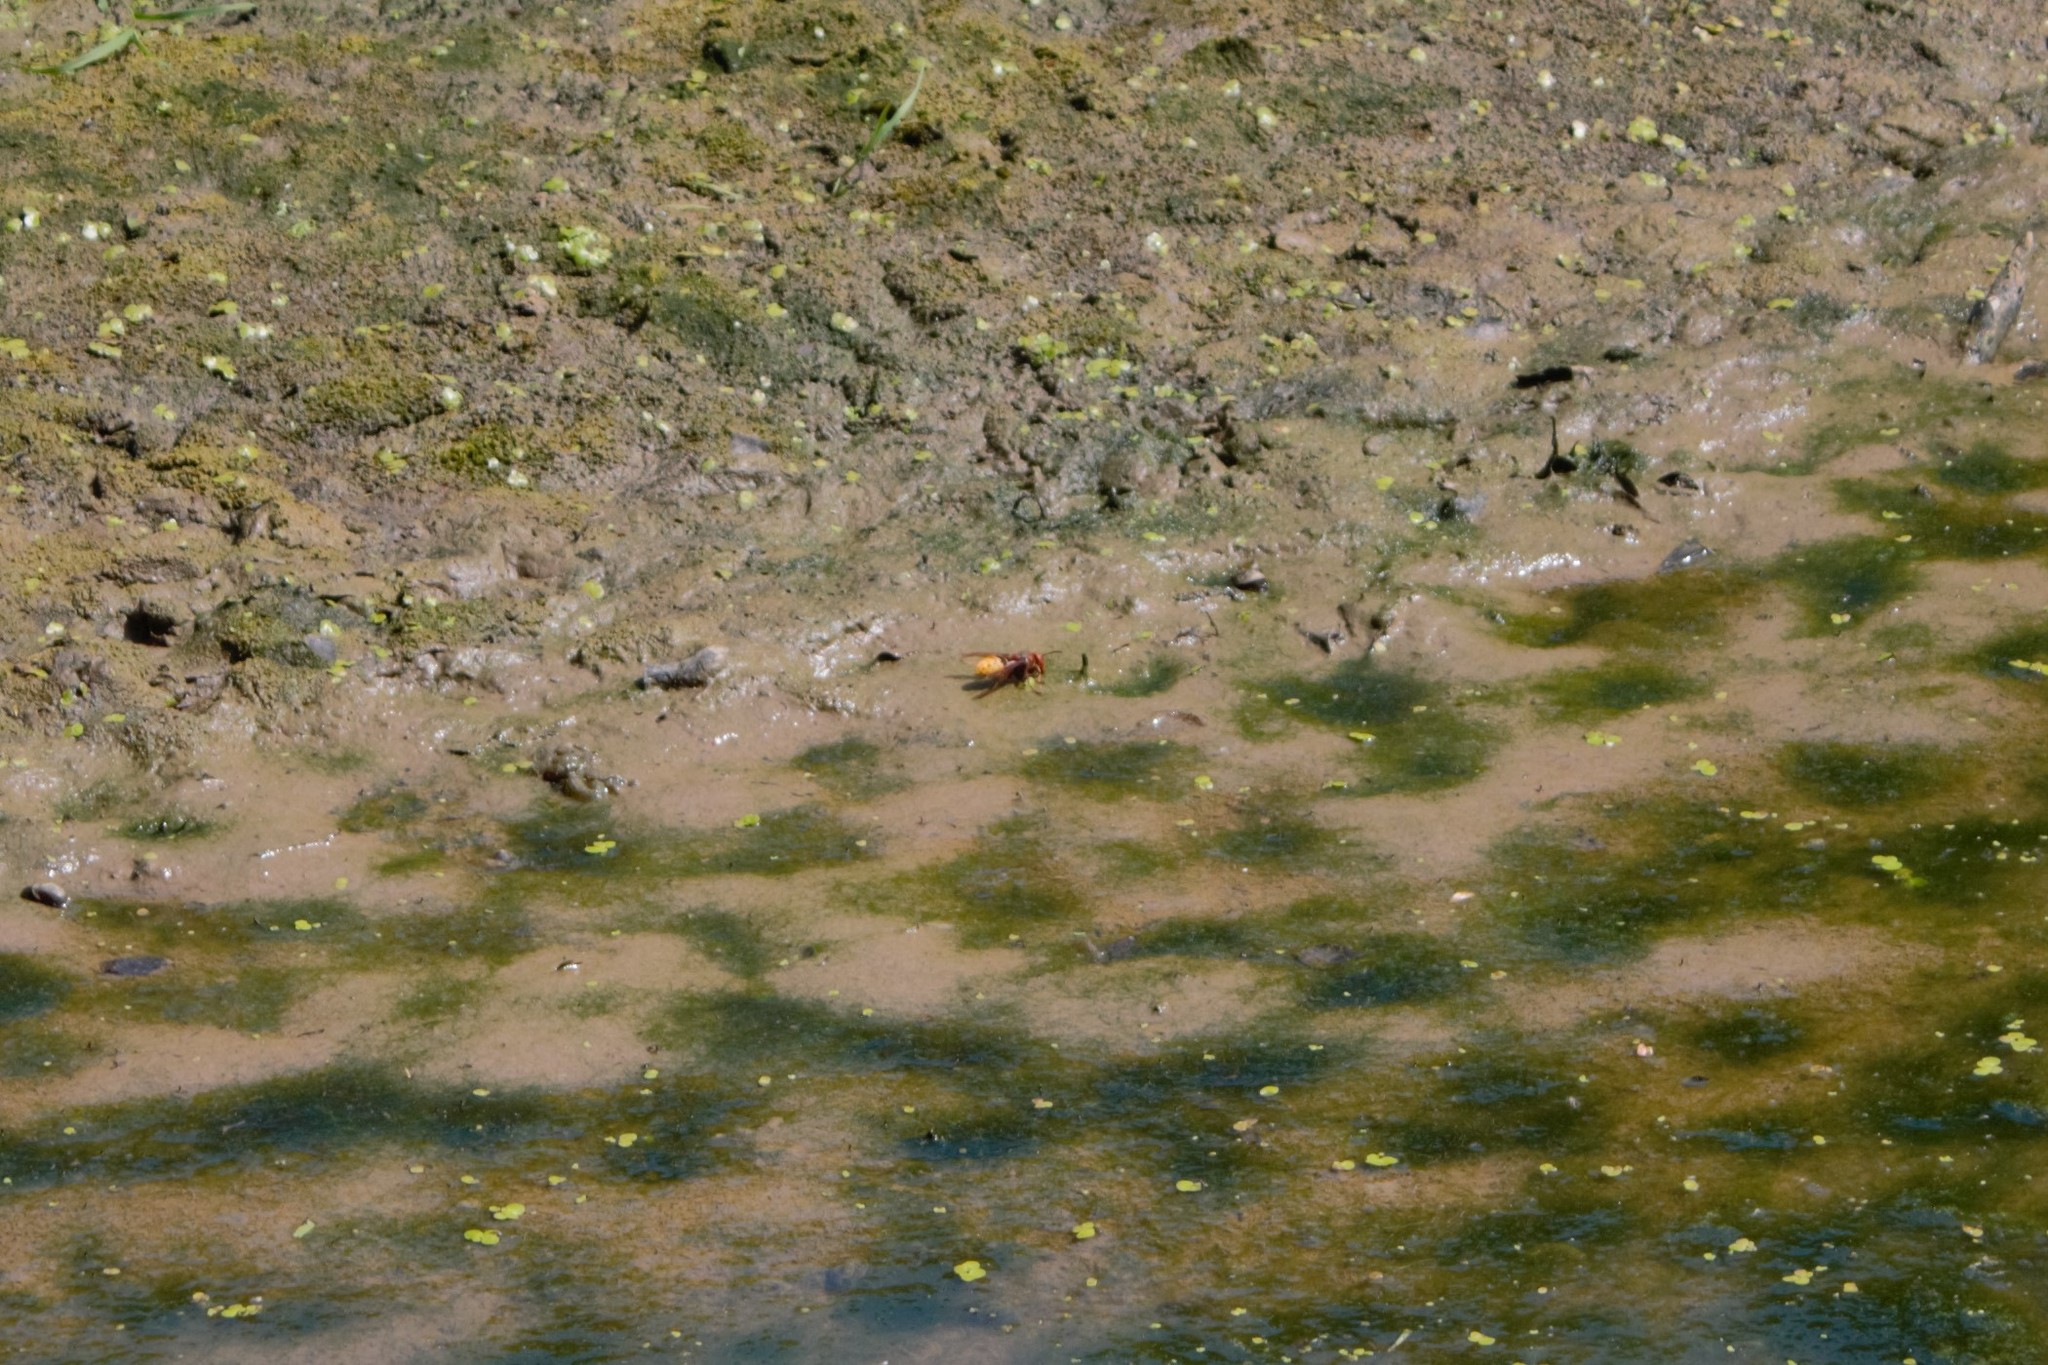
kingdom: Animalia
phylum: Arthropoda
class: Insecta
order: Hymenoptera
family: Vespidae
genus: Vespa
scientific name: Vespa crabro
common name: Hornet
